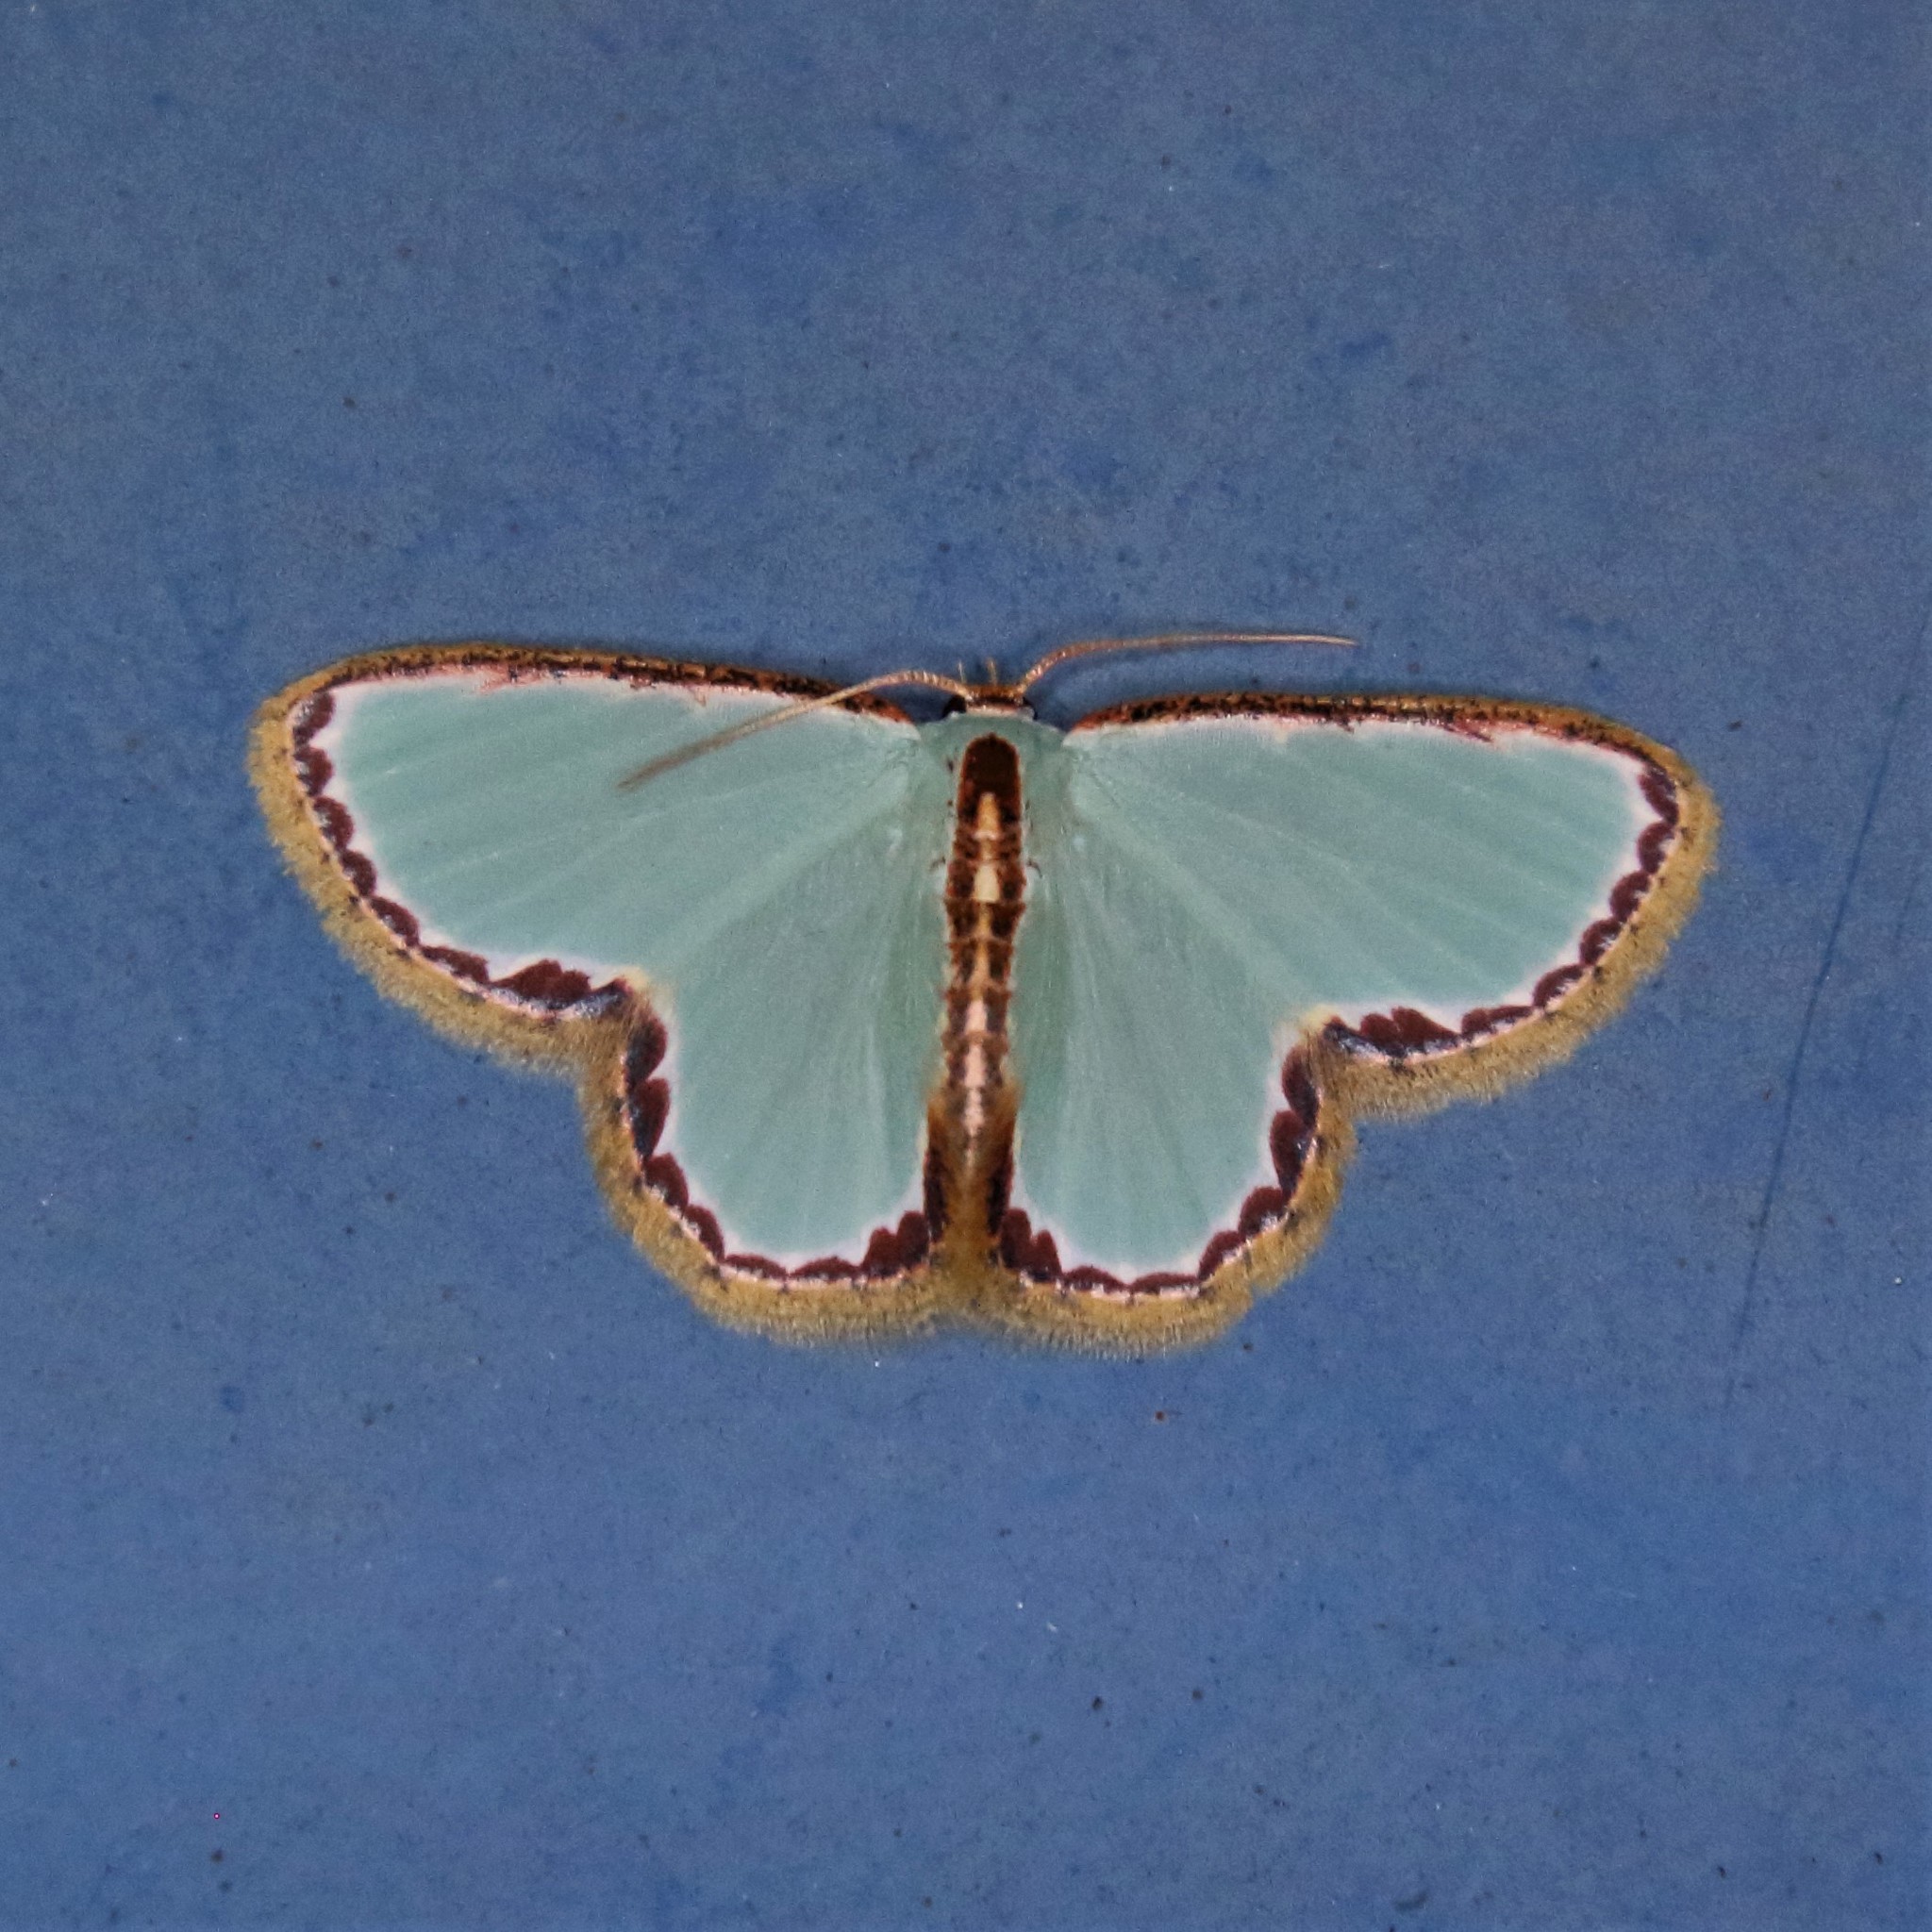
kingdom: Animalia
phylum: Arthropoda
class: Insecta
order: Lepidoptera
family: Geometridae
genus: Comostola
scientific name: Comostola turgescens
